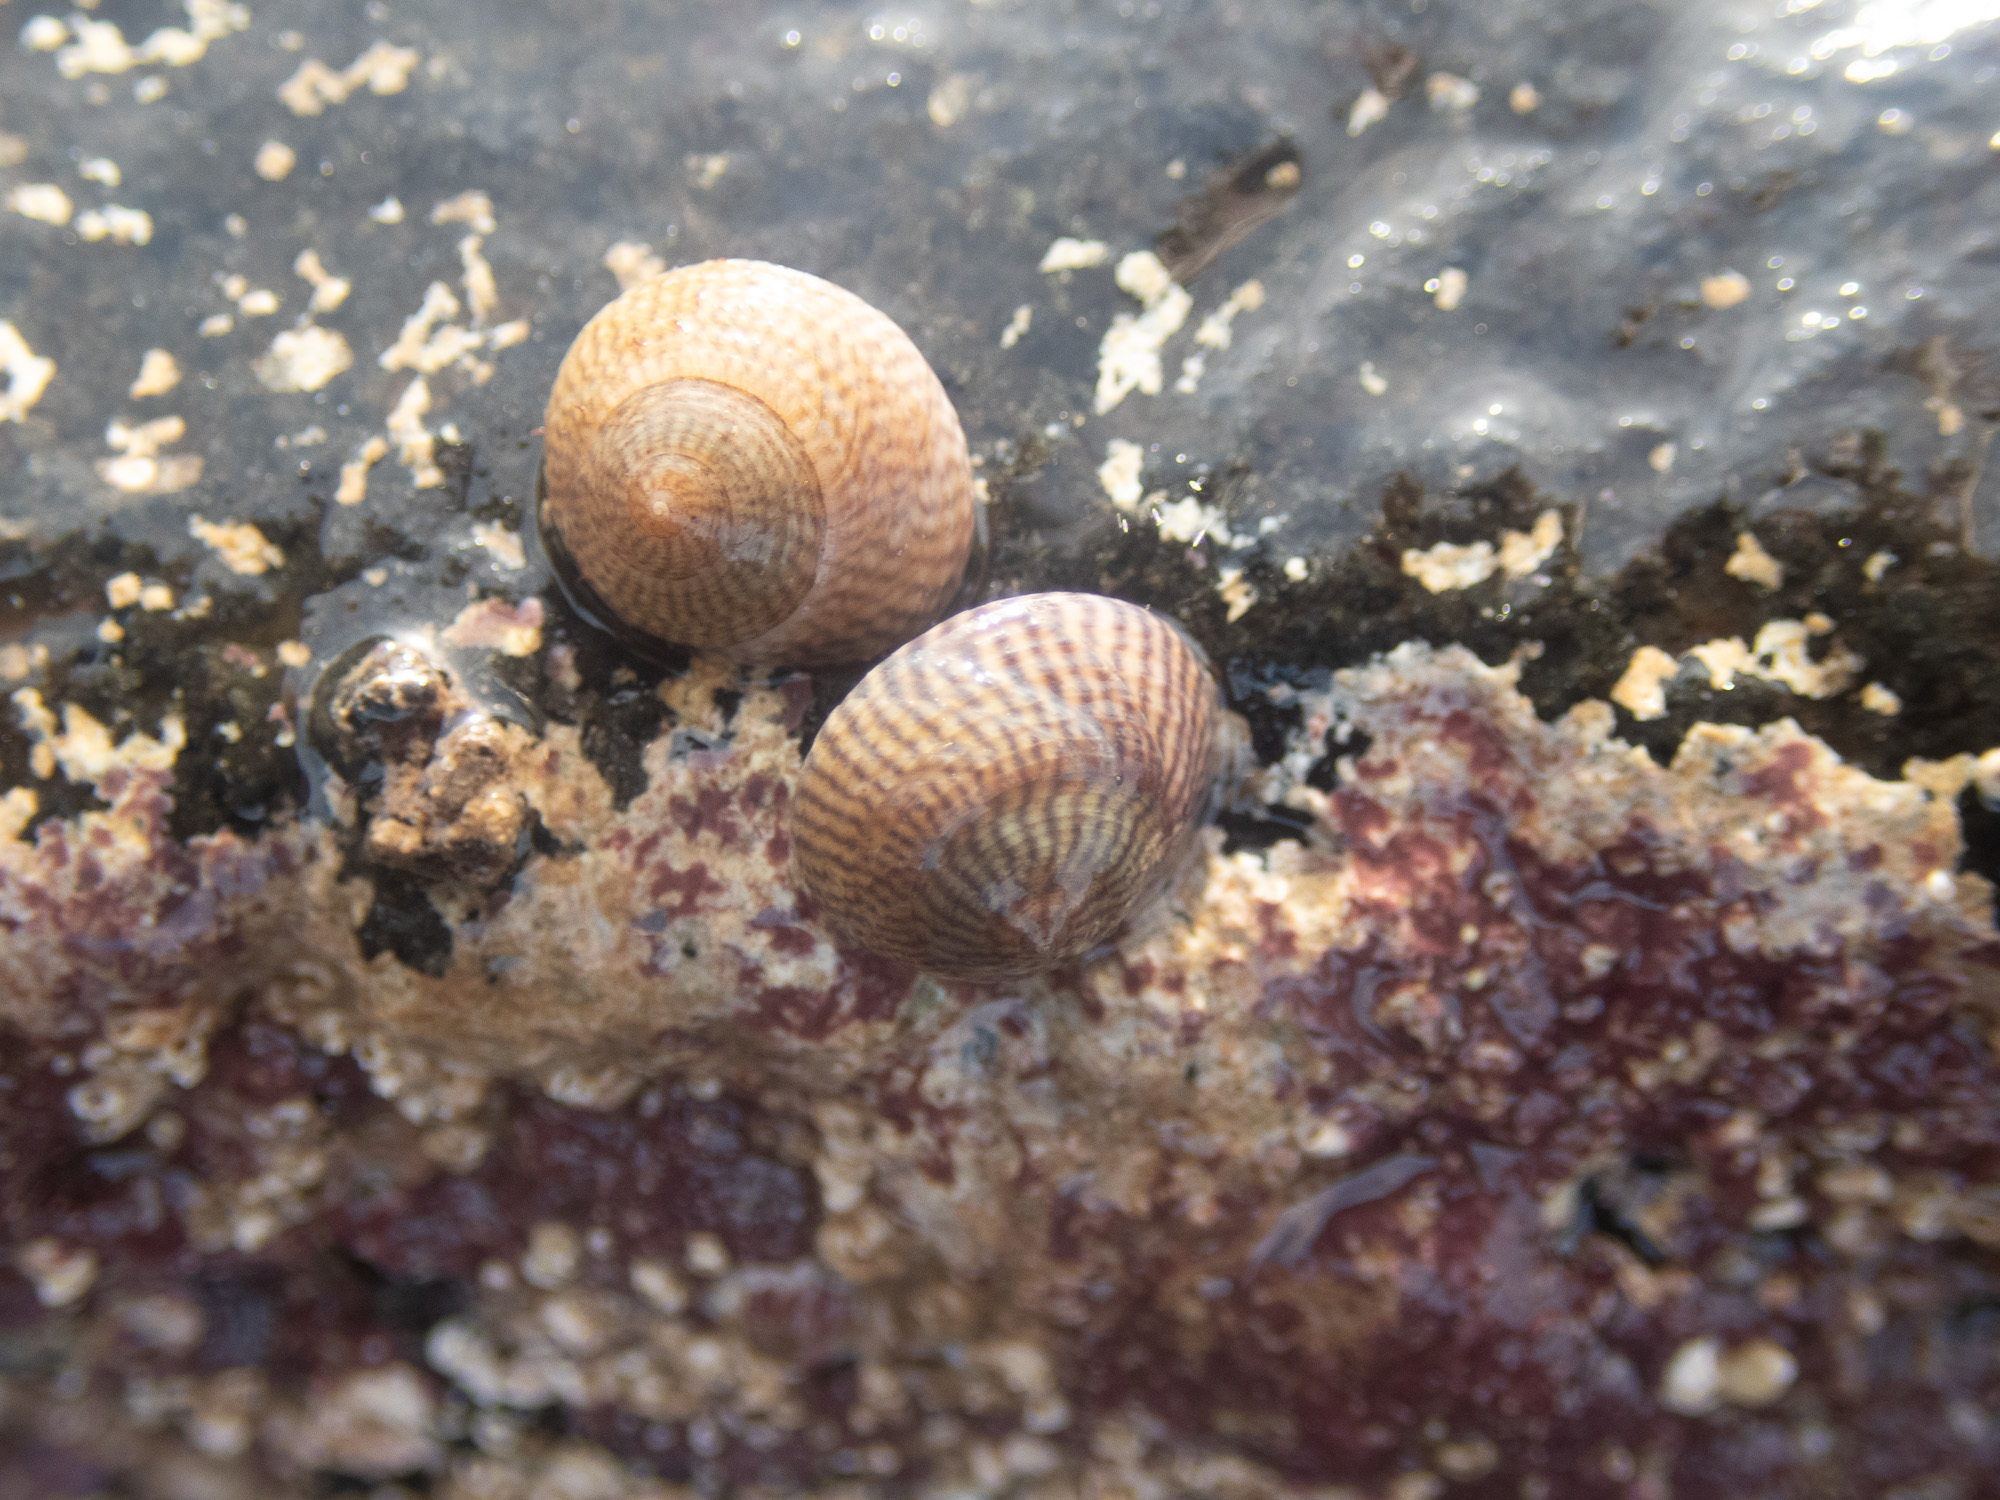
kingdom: Animalia
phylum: Mollusca
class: Gastropoda
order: Trochida
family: Trochidae
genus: Steromphala
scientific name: Steromphala cineraria
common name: Grey top shell
